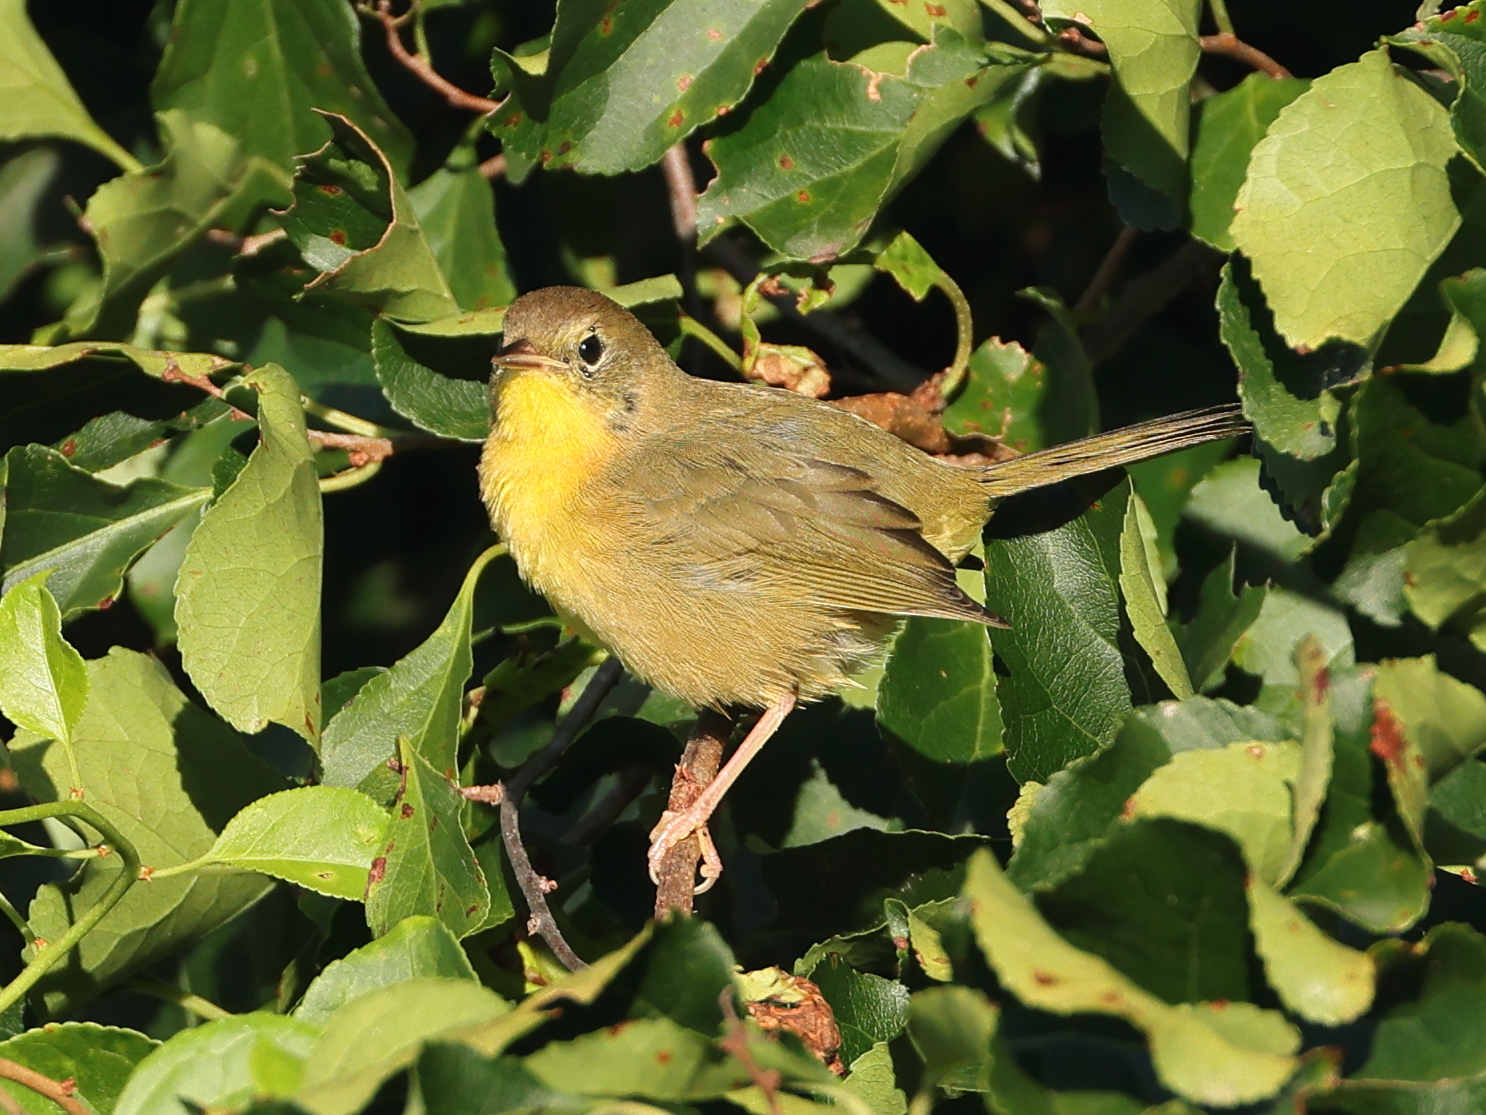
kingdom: Animalia
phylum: Chordata
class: Aves
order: Passeriformes
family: Parulidae
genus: Geothlypis
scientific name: Geothlypis trichas
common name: Common yellowthroat
